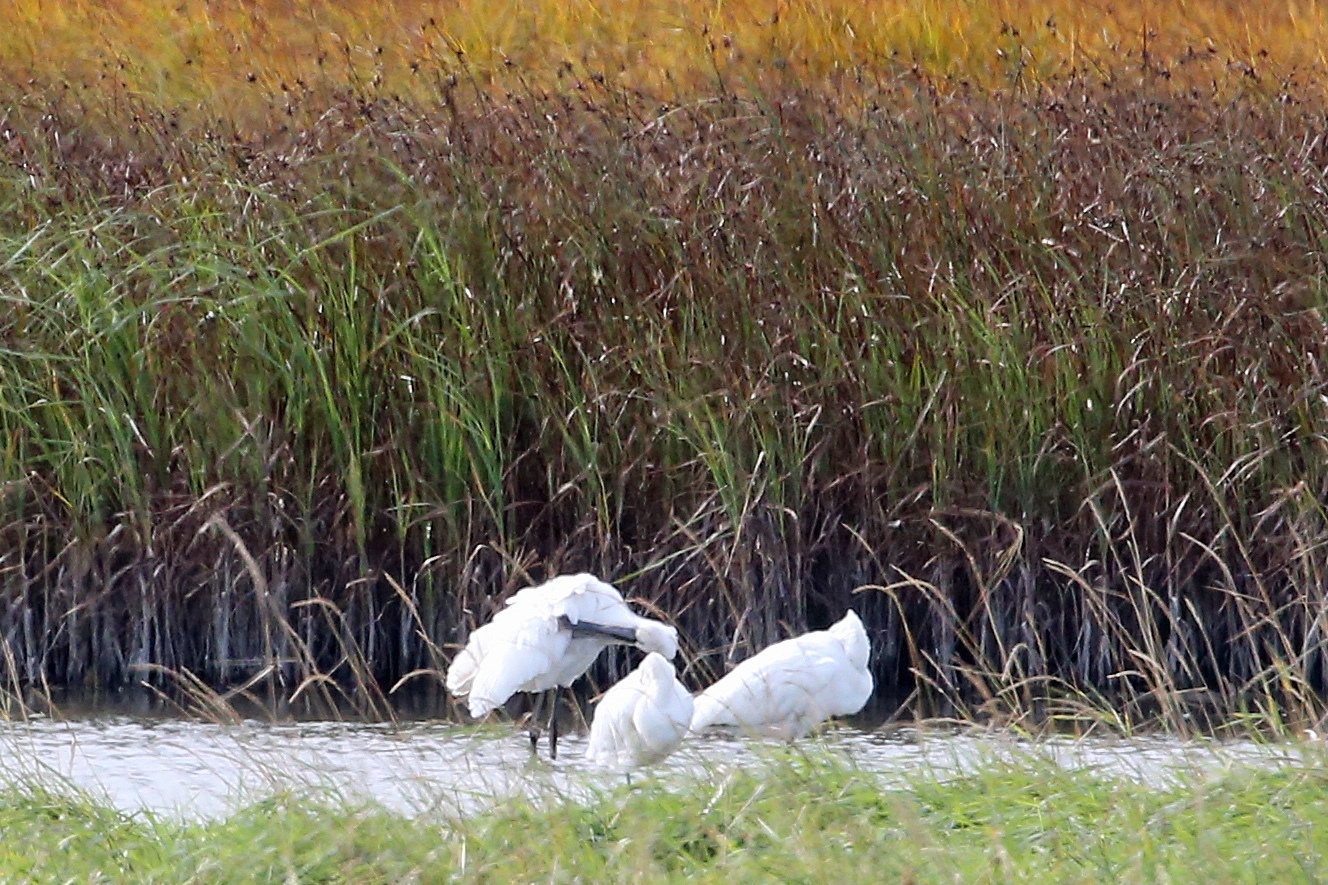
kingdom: Animalia
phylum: Chordata
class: Aves
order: Pelecaniformes
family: Threskiornithidae
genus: Platalea
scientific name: Platalea leucorodia
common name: Eurasian spoonbill
